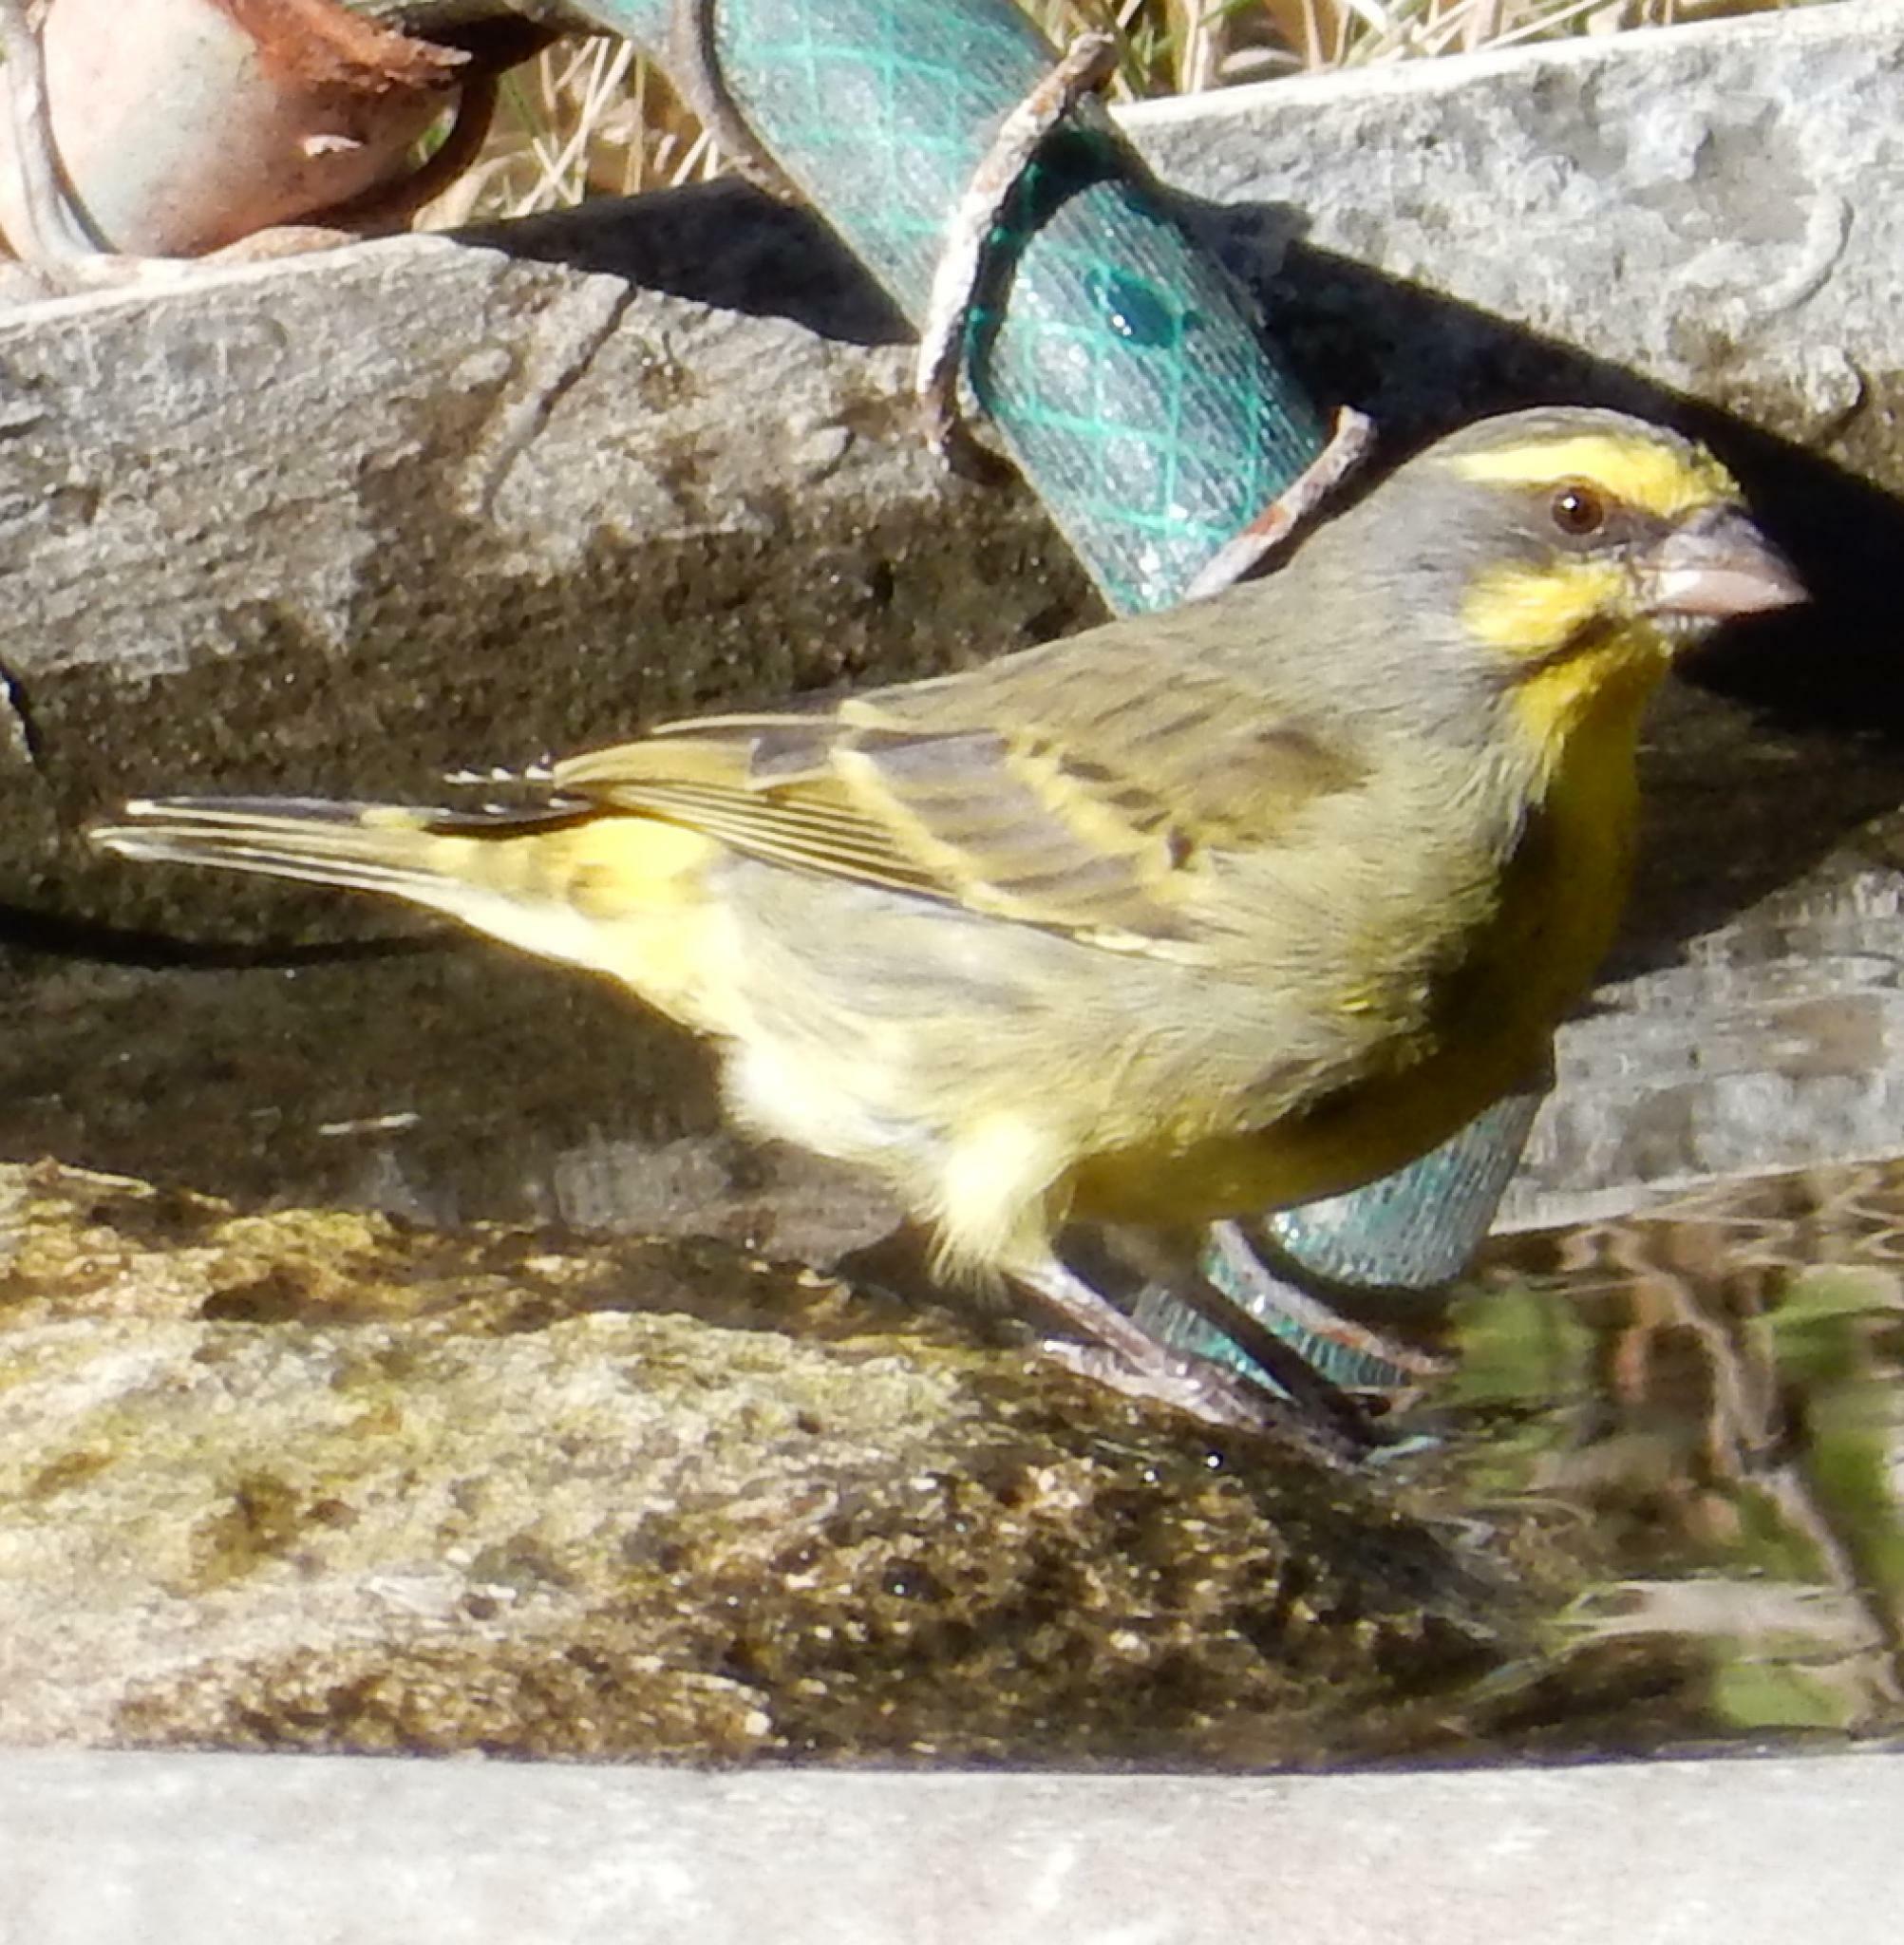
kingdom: Animalia
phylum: Chordata
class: Aves
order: Passeriformes
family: Fringillidae
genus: Crithagra
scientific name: Crithagra mozambica
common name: Yellow-fronted canary
